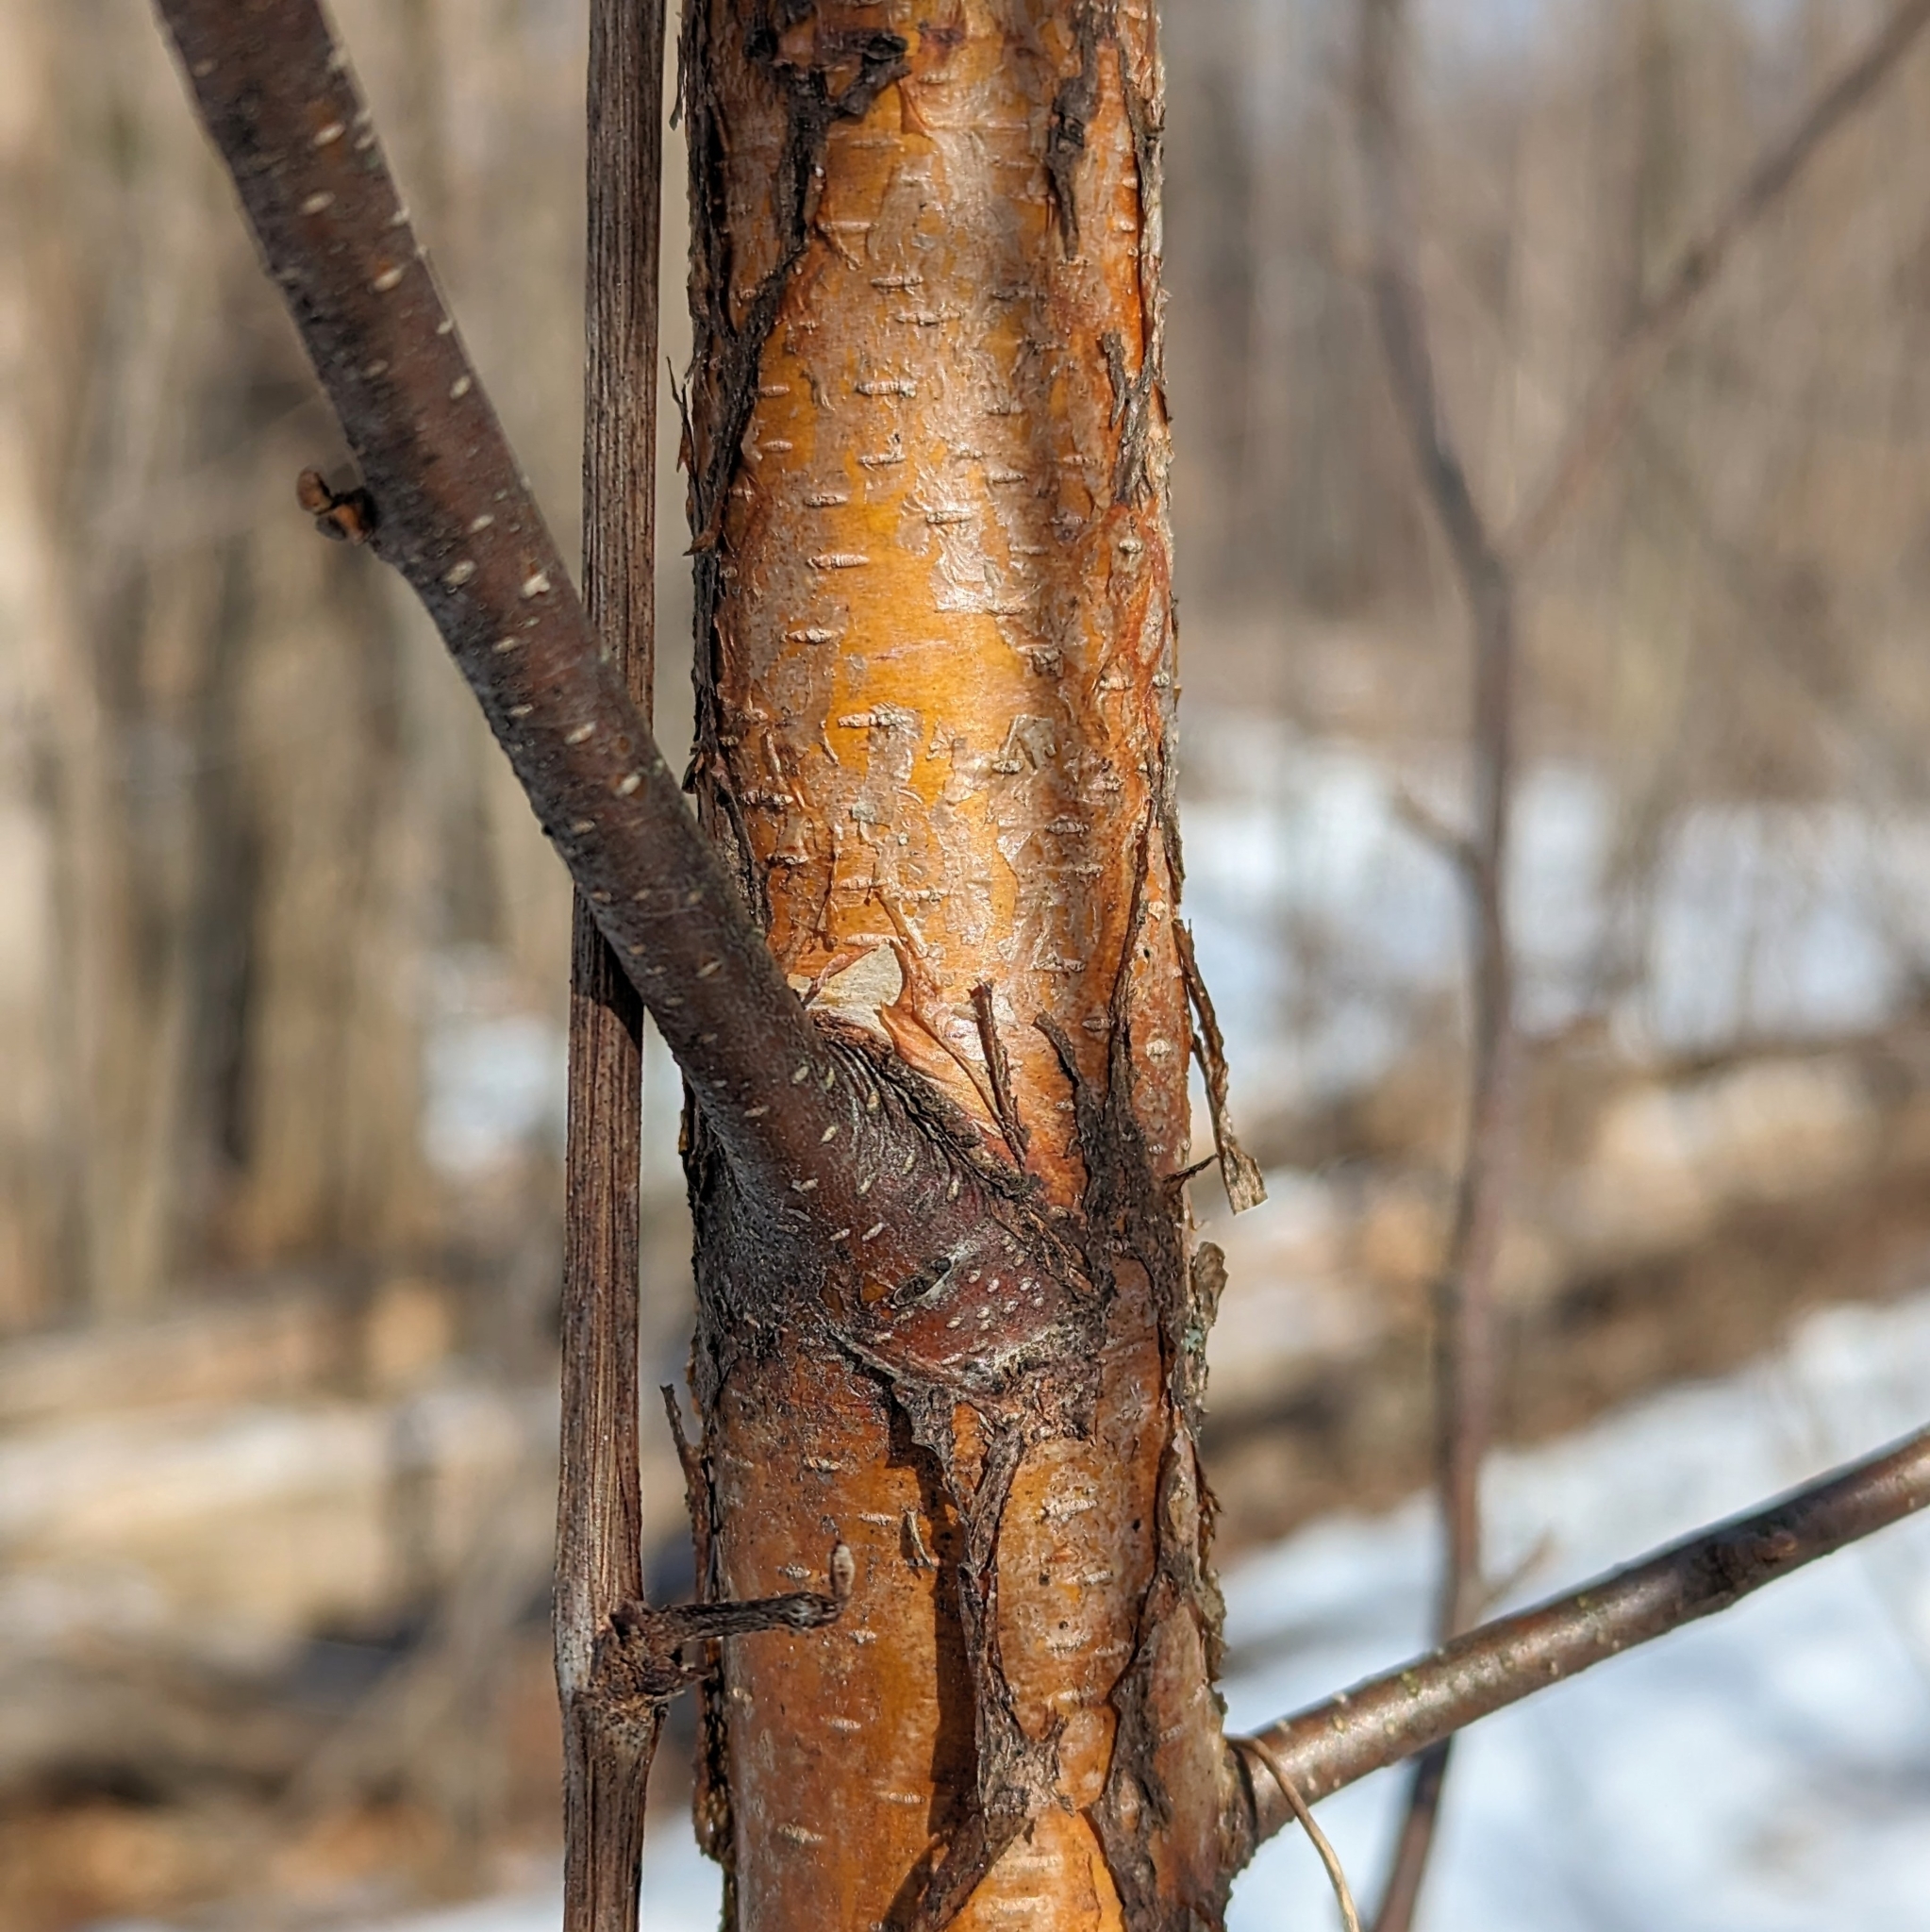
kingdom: Plantae
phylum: Tracheophyta
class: Magnoliopsida
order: Fagales
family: Betulaceae
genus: Betula
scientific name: Betula papyrifera
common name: Paper birch
